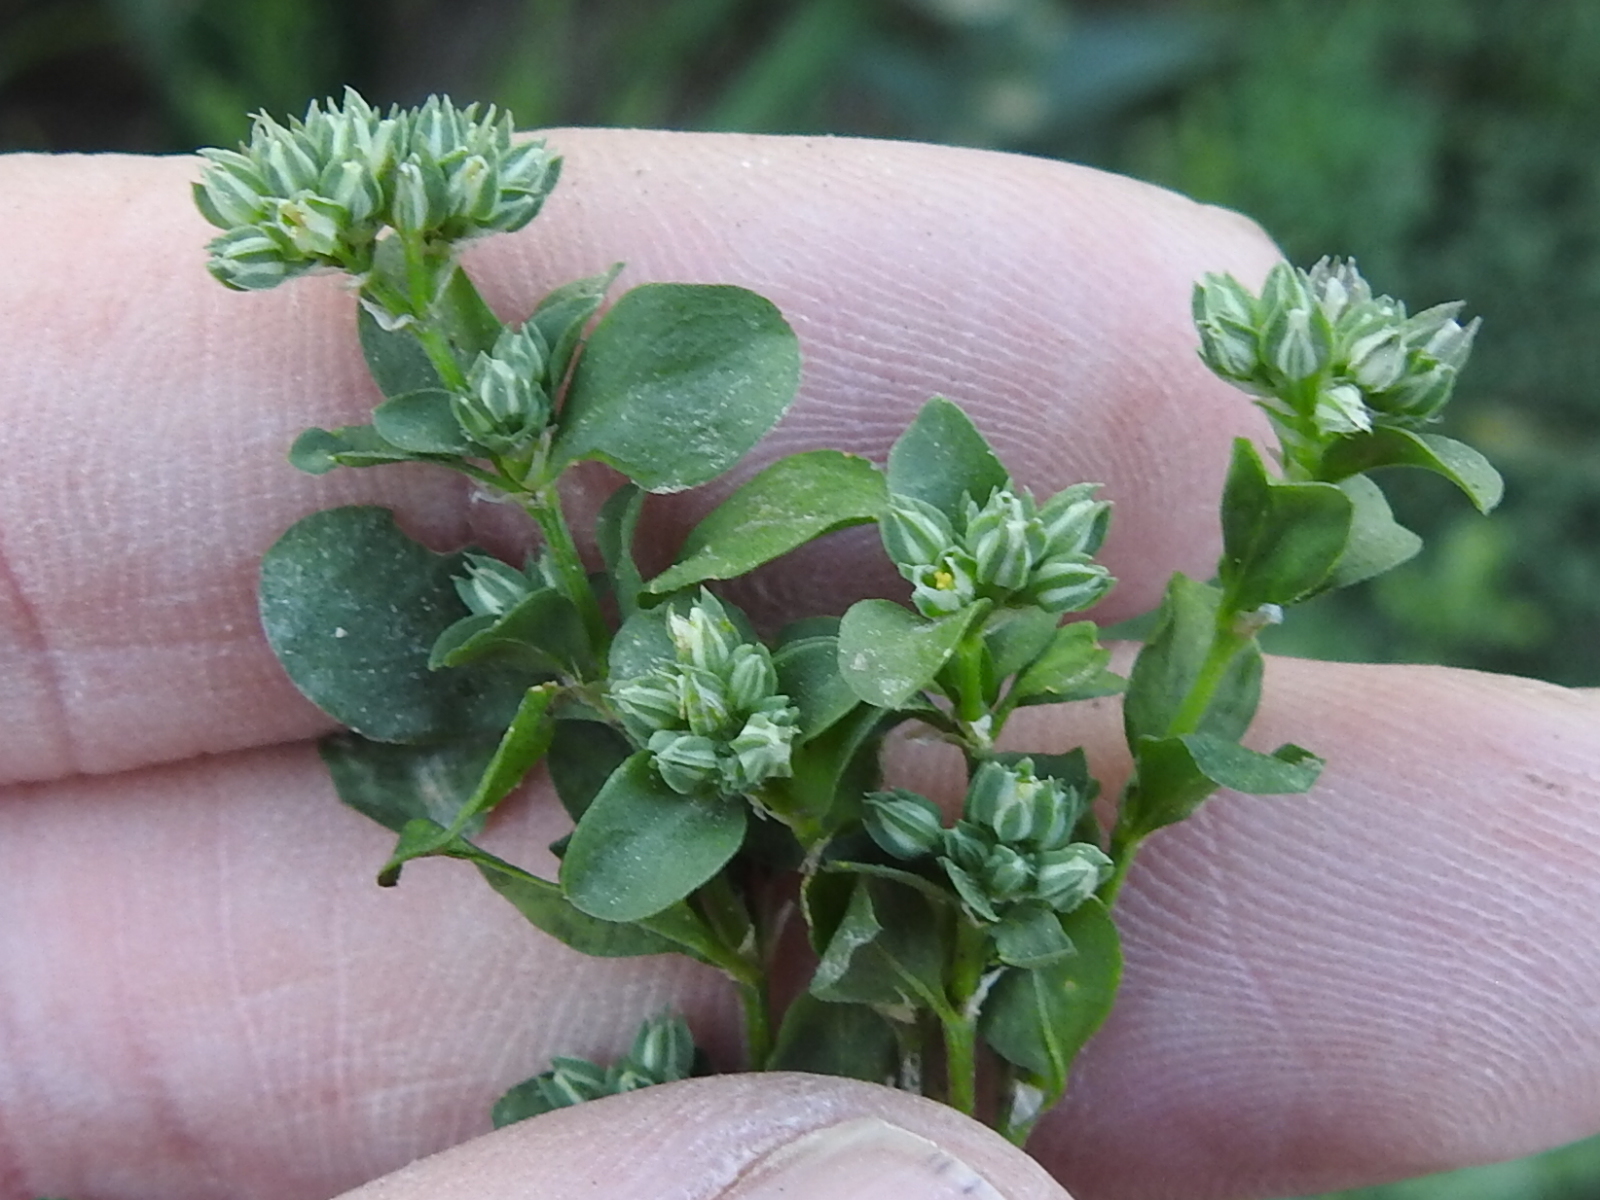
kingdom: Plantae
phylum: Tracheophyta
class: Magnoliopsida
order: Caryophyllales
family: Caryophyllaceae
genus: Polycarpon
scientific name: Polycarpon tetraphyllum
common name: Four-leaved all-seed
